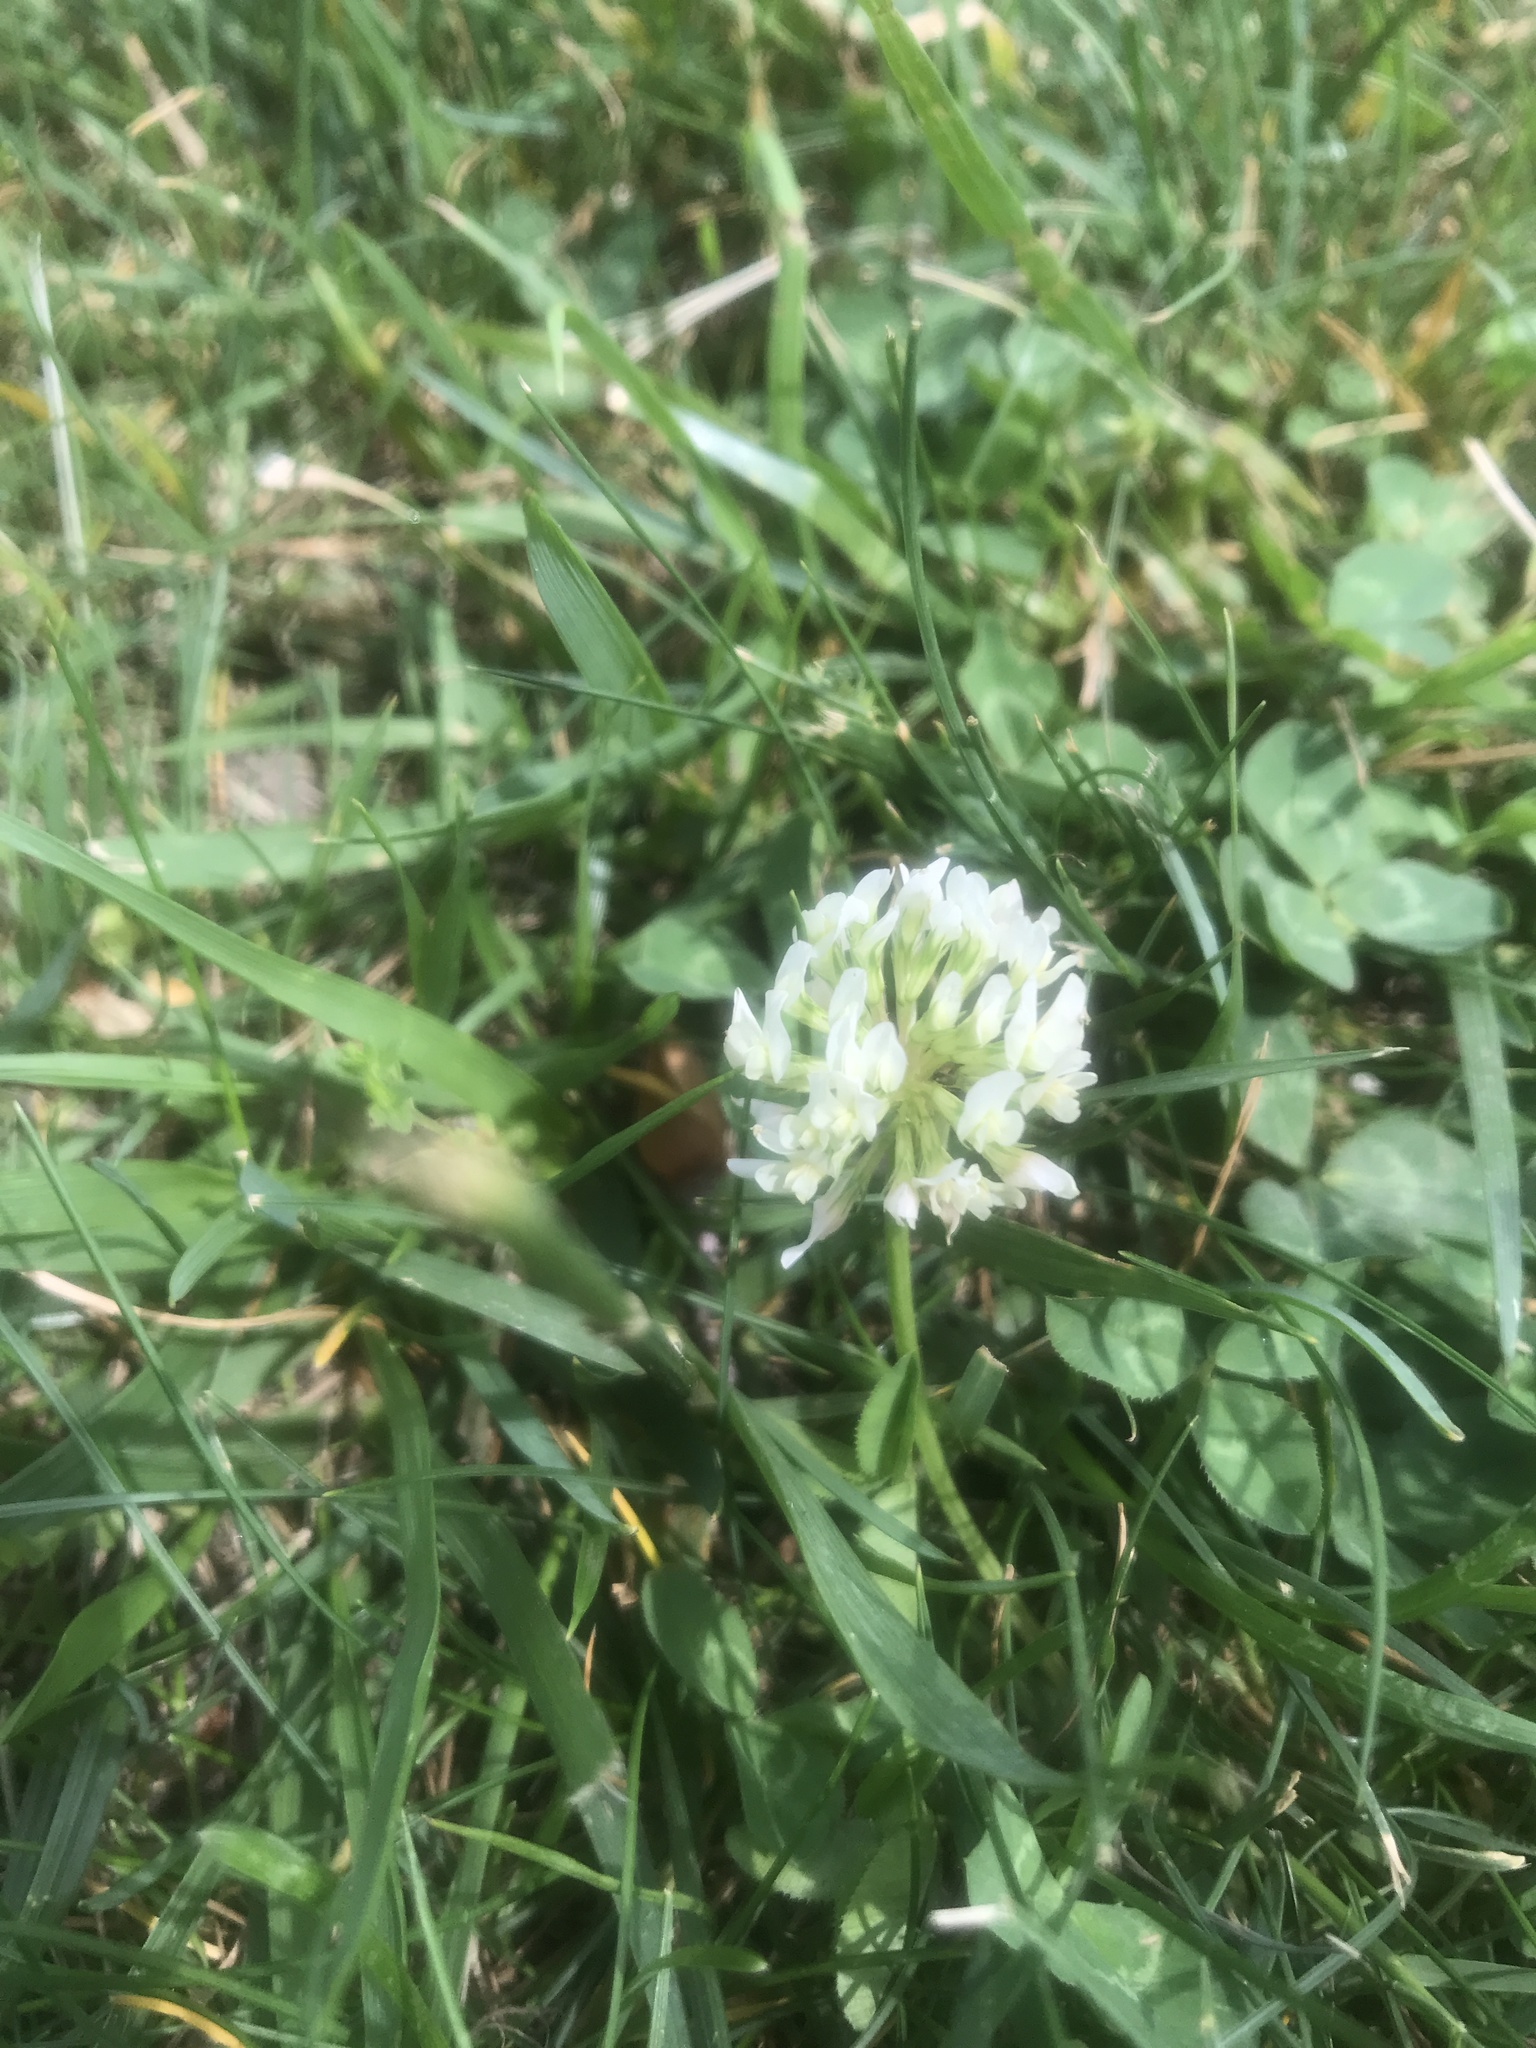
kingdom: Plantae
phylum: Tracheophyta
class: Magnoliopsida
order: Fabales
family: Fabaceae
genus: Trifolium
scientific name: Trifolium repens
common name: White clover
